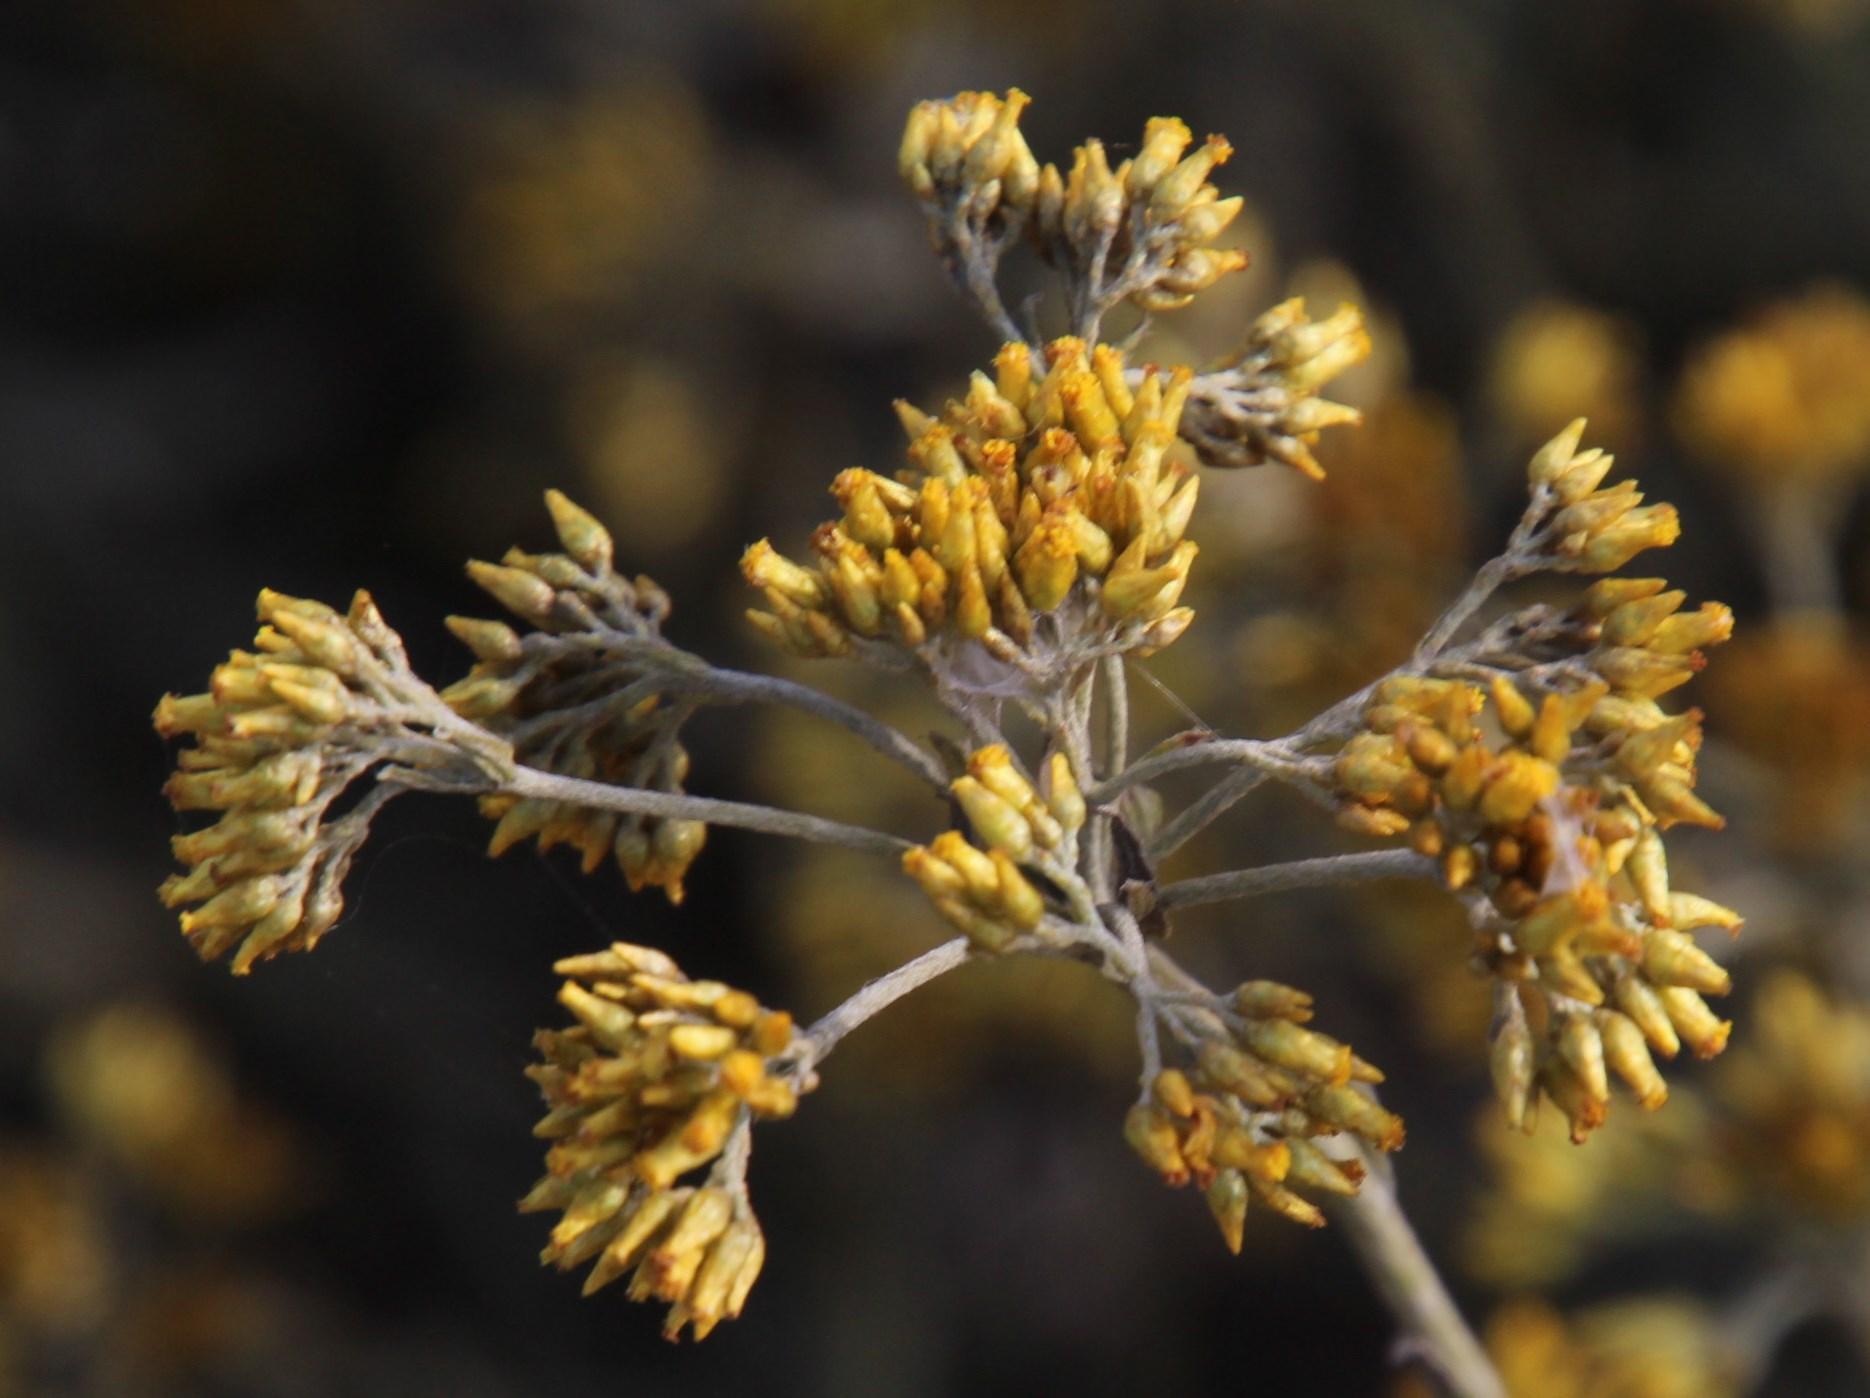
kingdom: Plantae
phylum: Tracheophyta
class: Magnoliopsida
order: Asterales
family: Asteraceae
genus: Helichrysum
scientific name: Helichrysum cymosum
